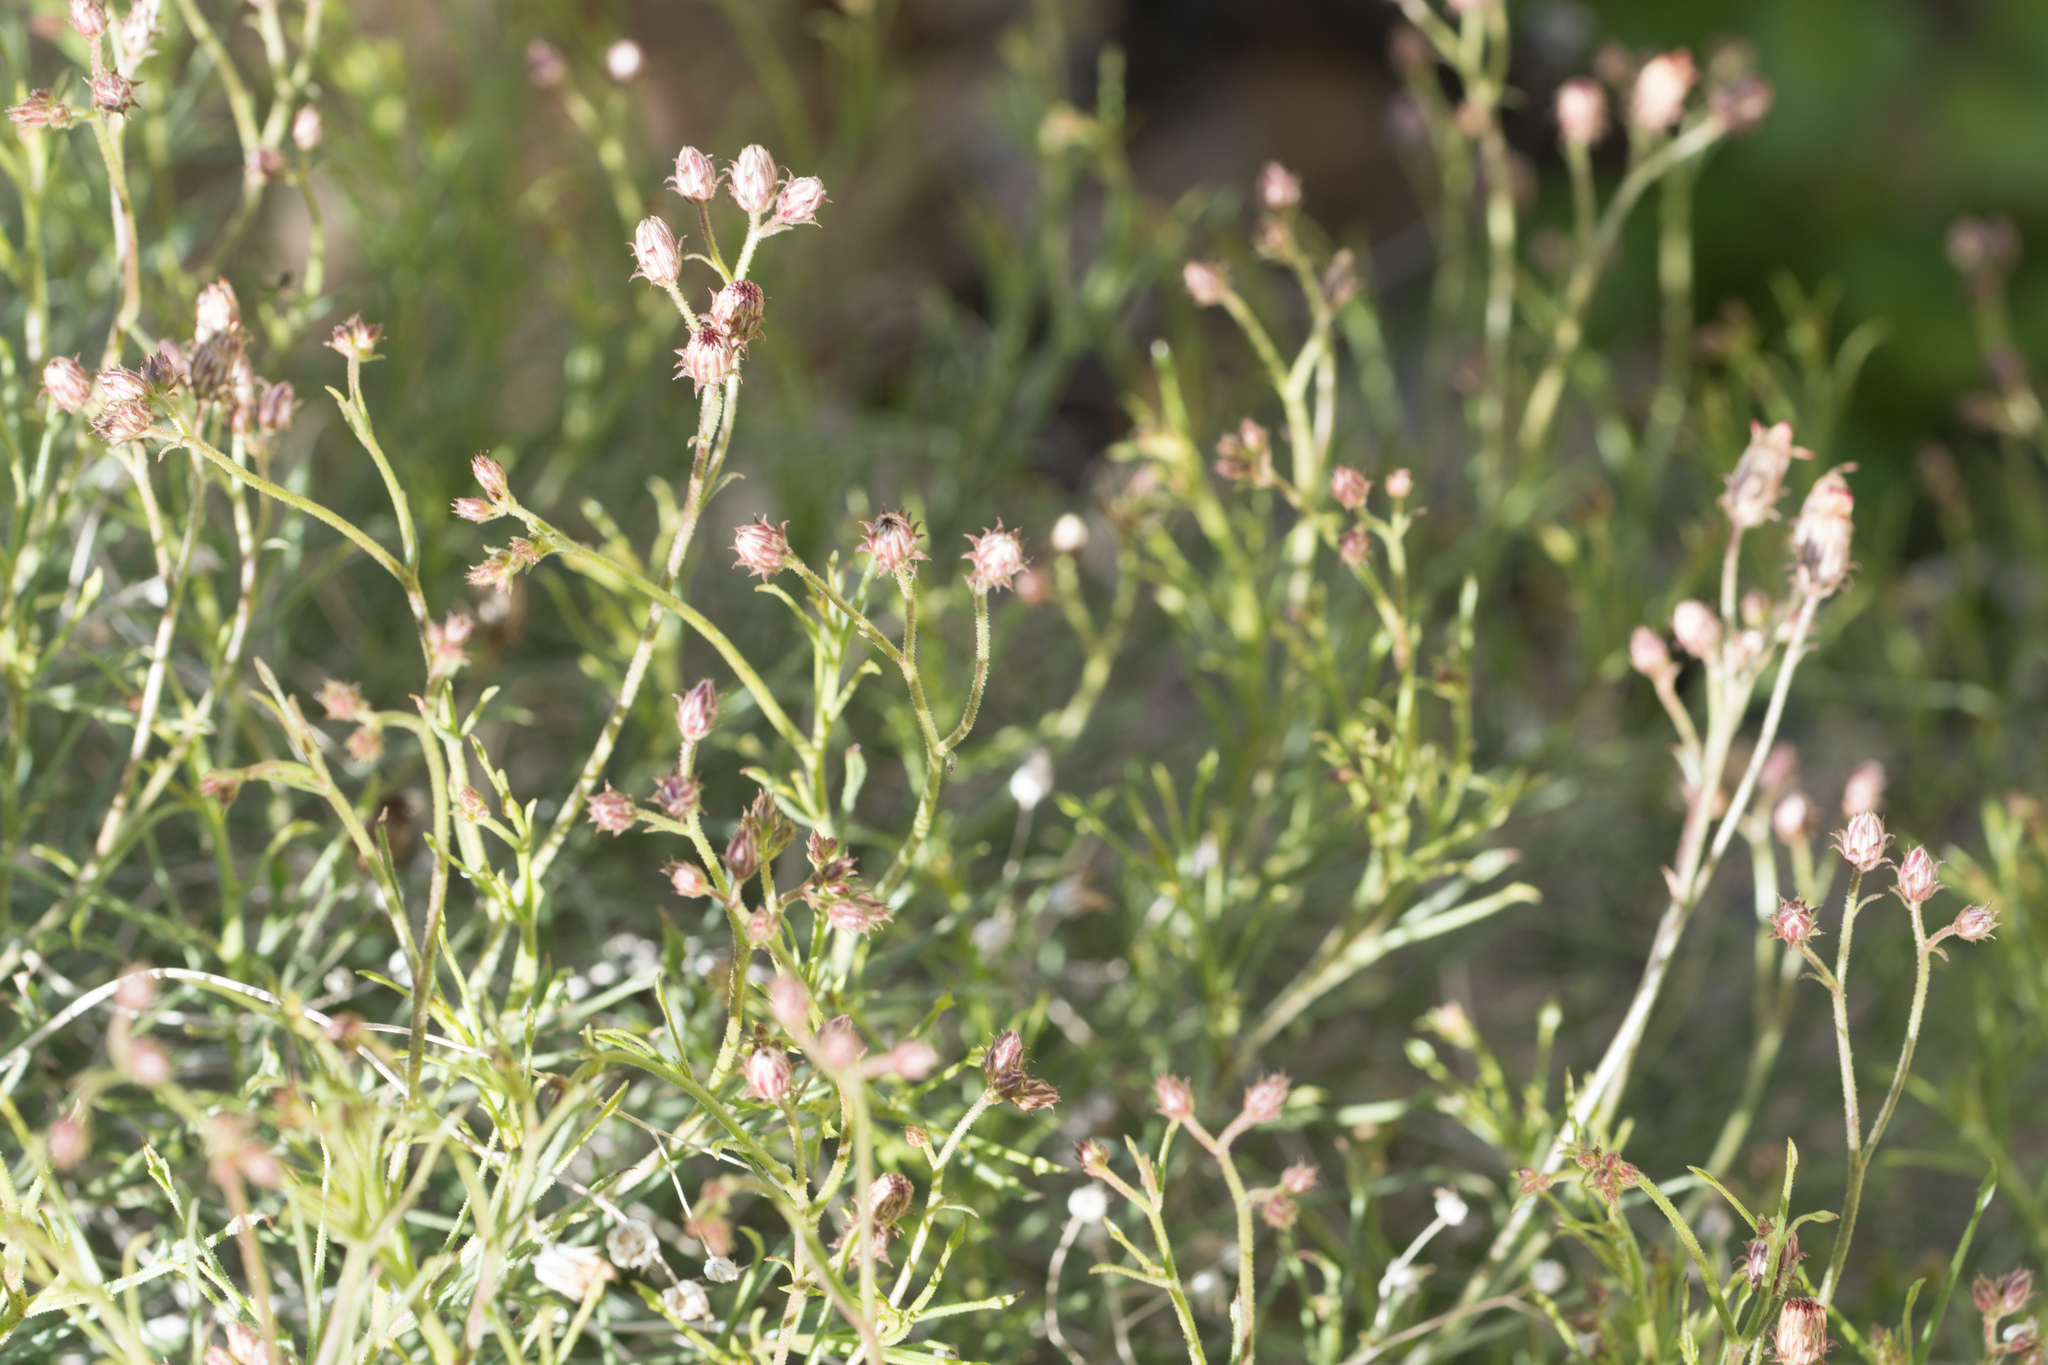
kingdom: Plantae
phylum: Tracheophyta
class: Magnoliopsida
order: Asterales
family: Asteraceae
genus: Pleurocoronis
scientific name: Pleurocoronis pluriseta
